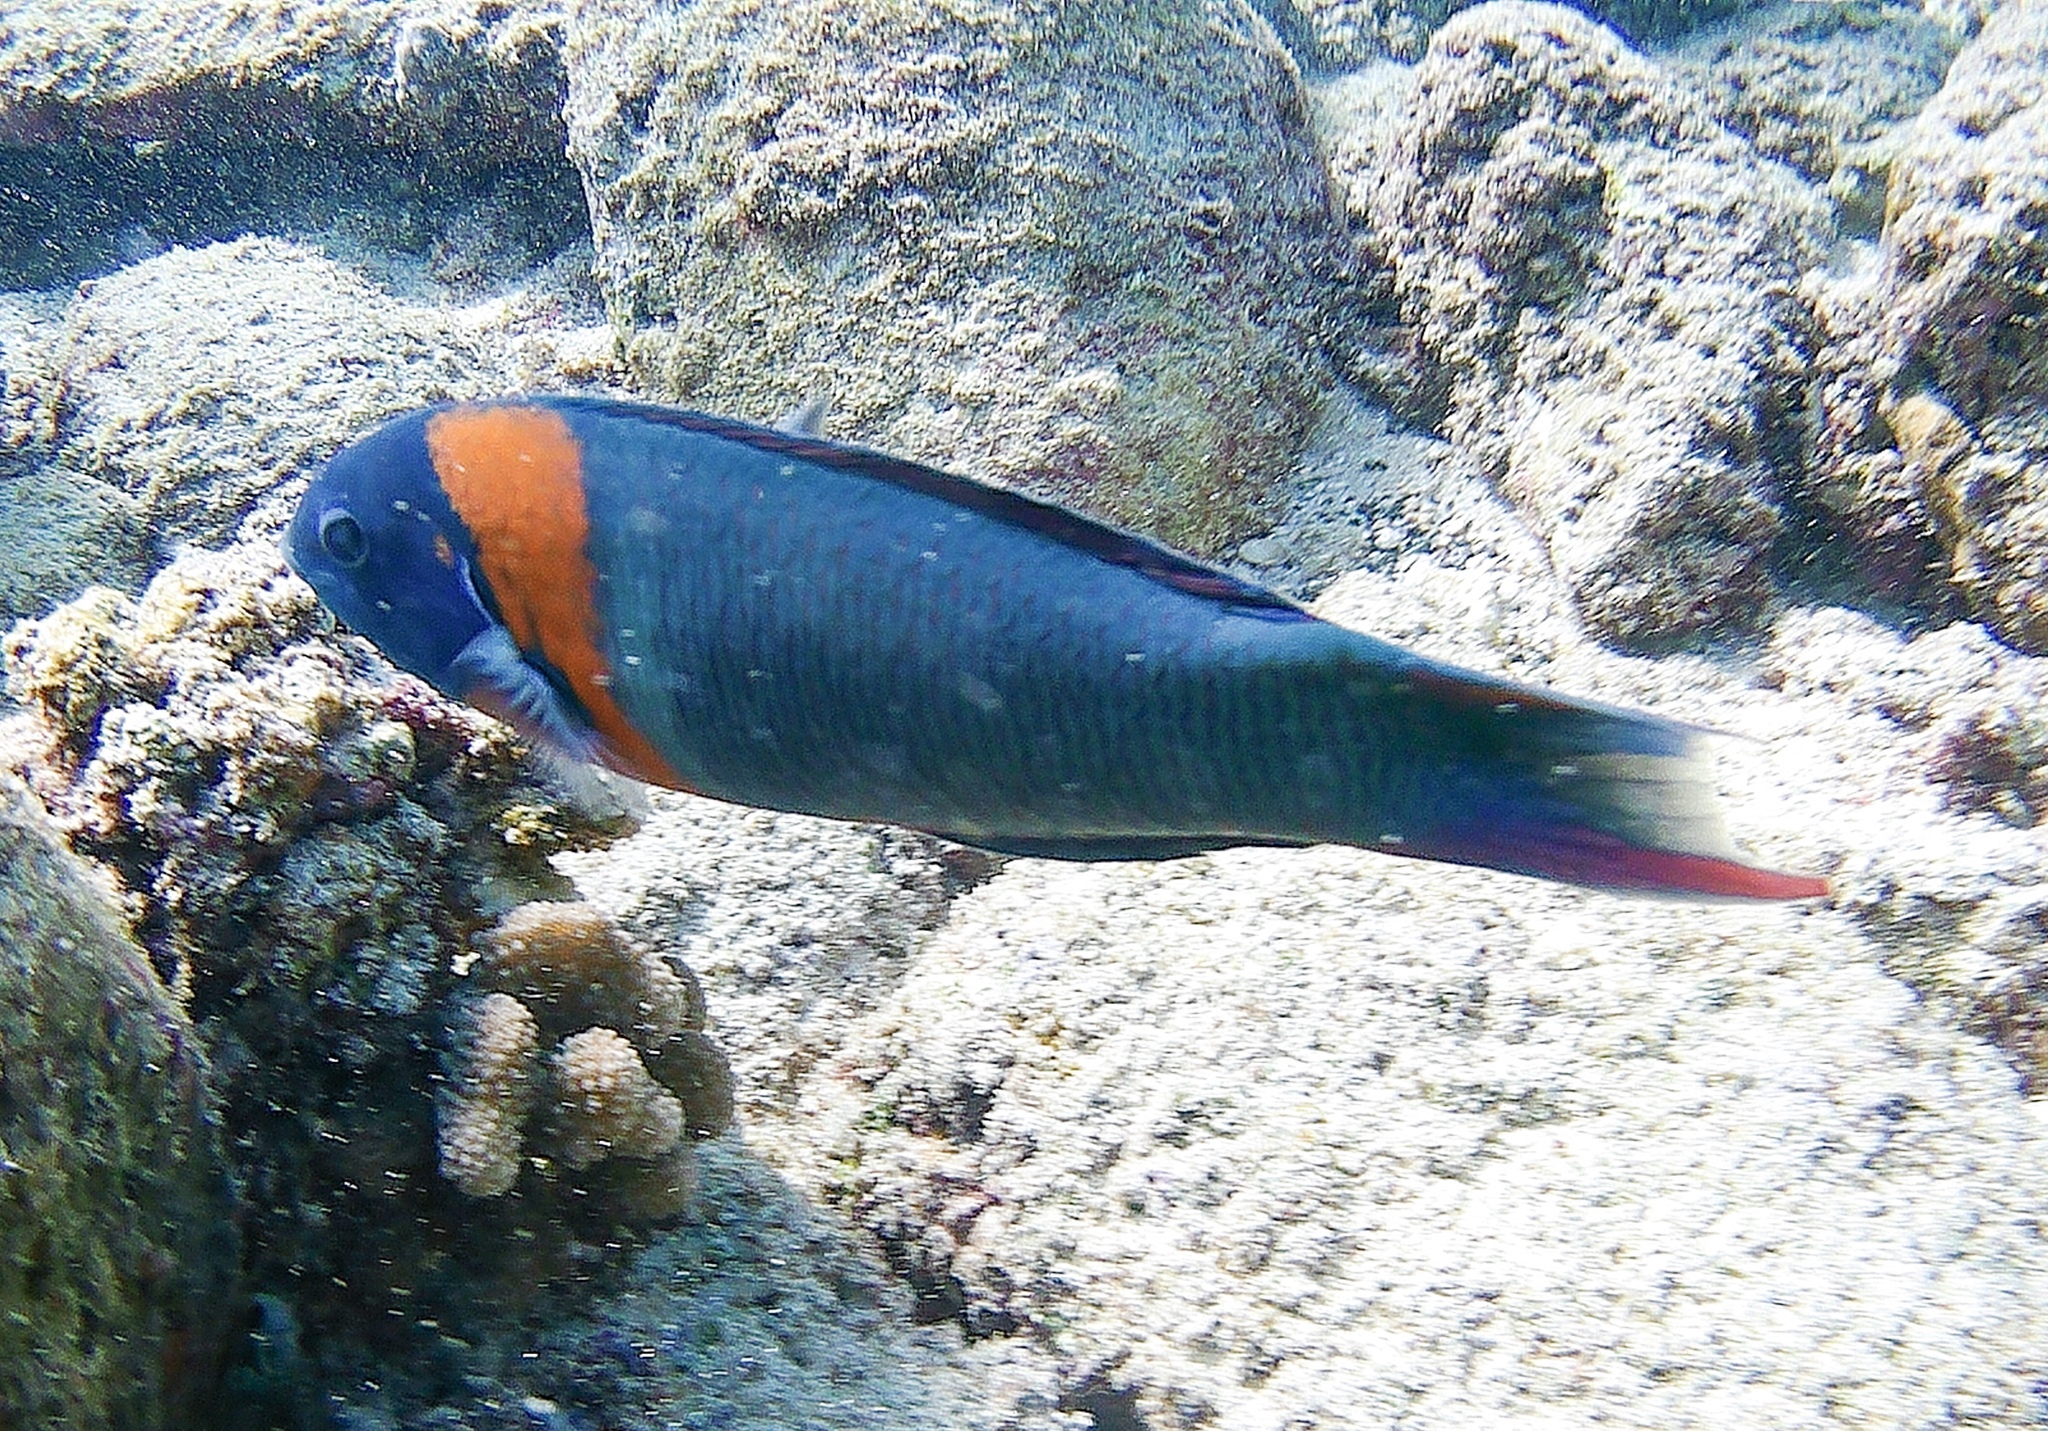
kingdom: Animalia
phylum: Chordata
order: Perciformes
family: Labridae
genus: Thalassoma
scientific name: Thalassoma duperrey
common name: Saddle wrasse
